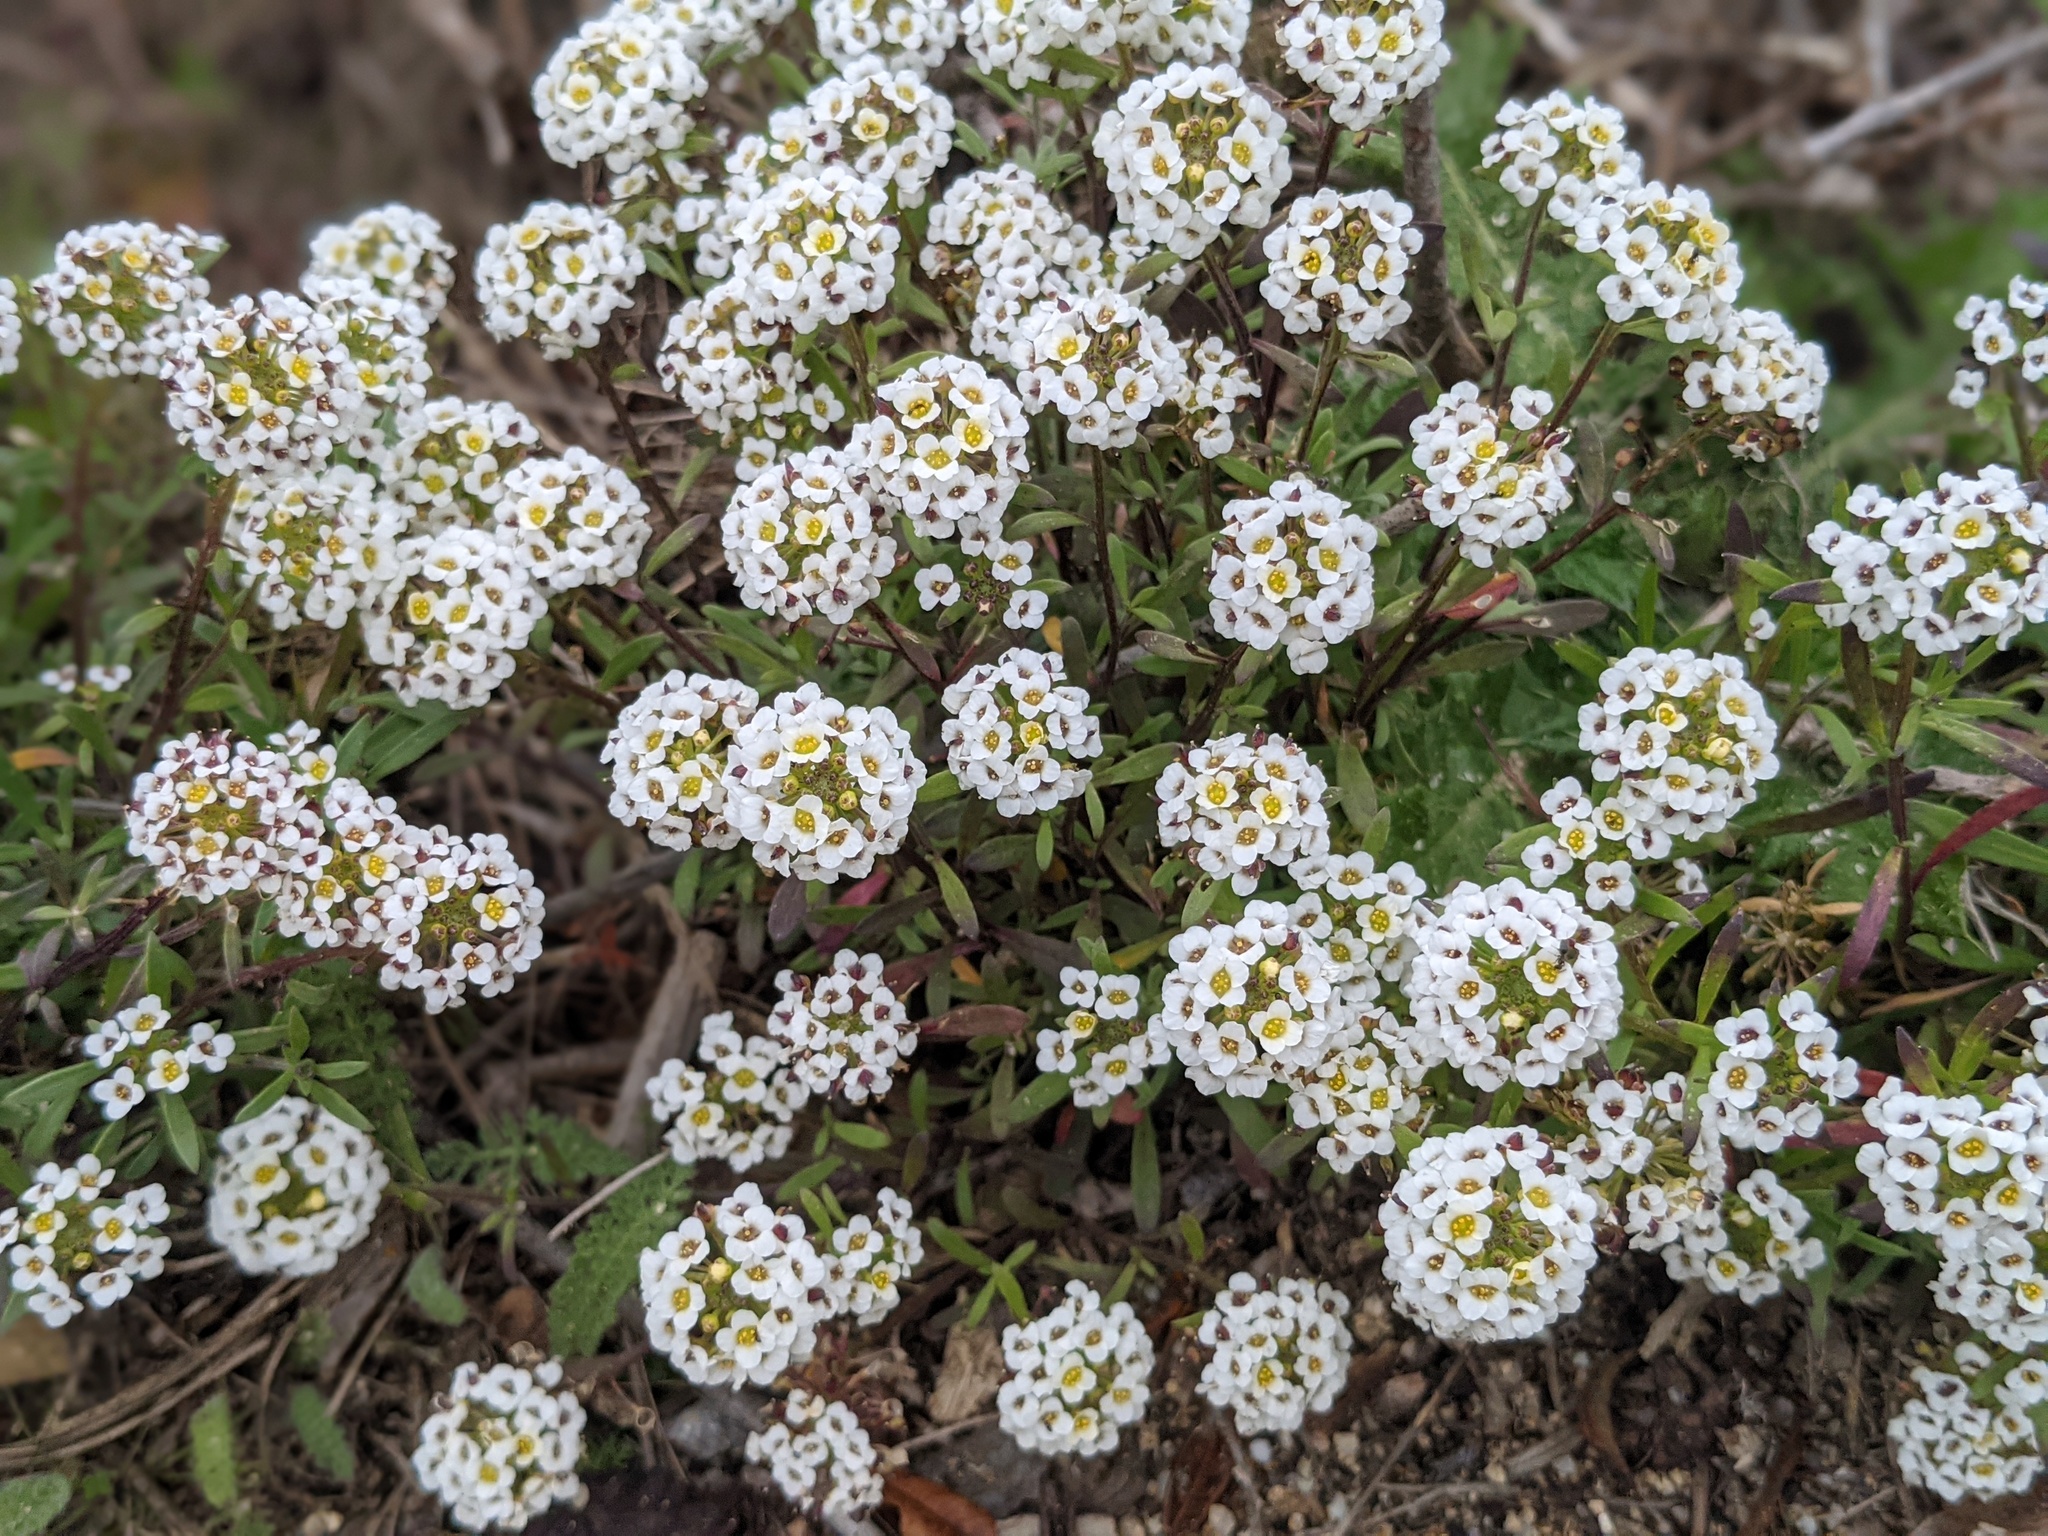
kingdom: Plantae
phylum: Tracheophyta
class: Magnoliopsida
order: Brassicales
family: Brassicaceae
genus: Lobularia
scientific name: Lobularia maritima
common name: Sweet alison
